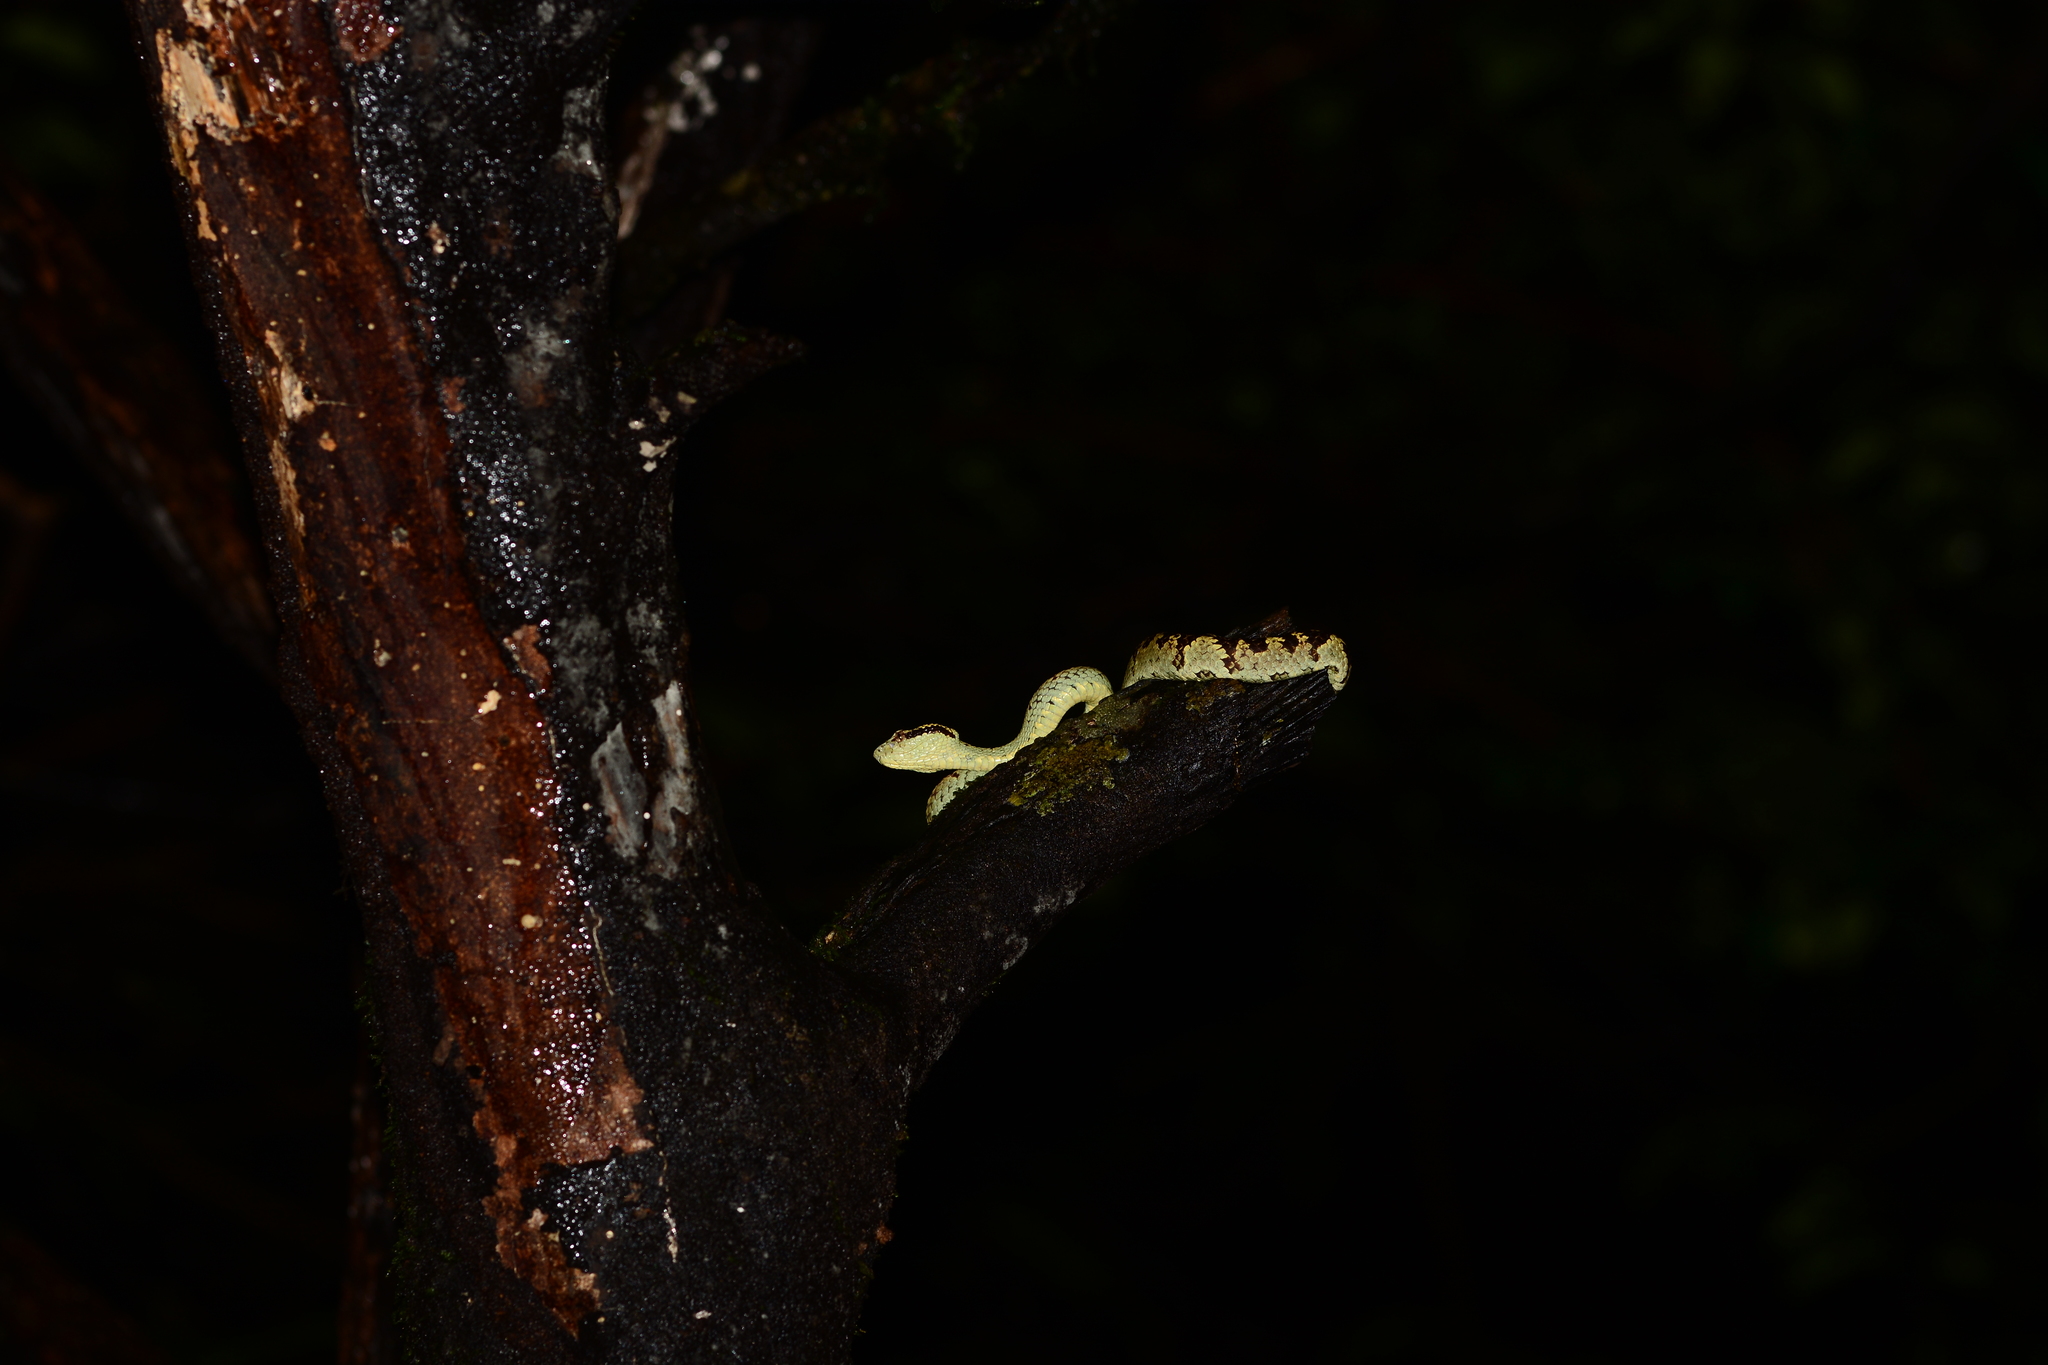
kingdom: Animalia
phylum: Chordata
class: Squamata
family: Viperidae
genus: Craspedocephalus
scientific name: Craspedocephalus malabaricus
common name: Malabarian pit viper
